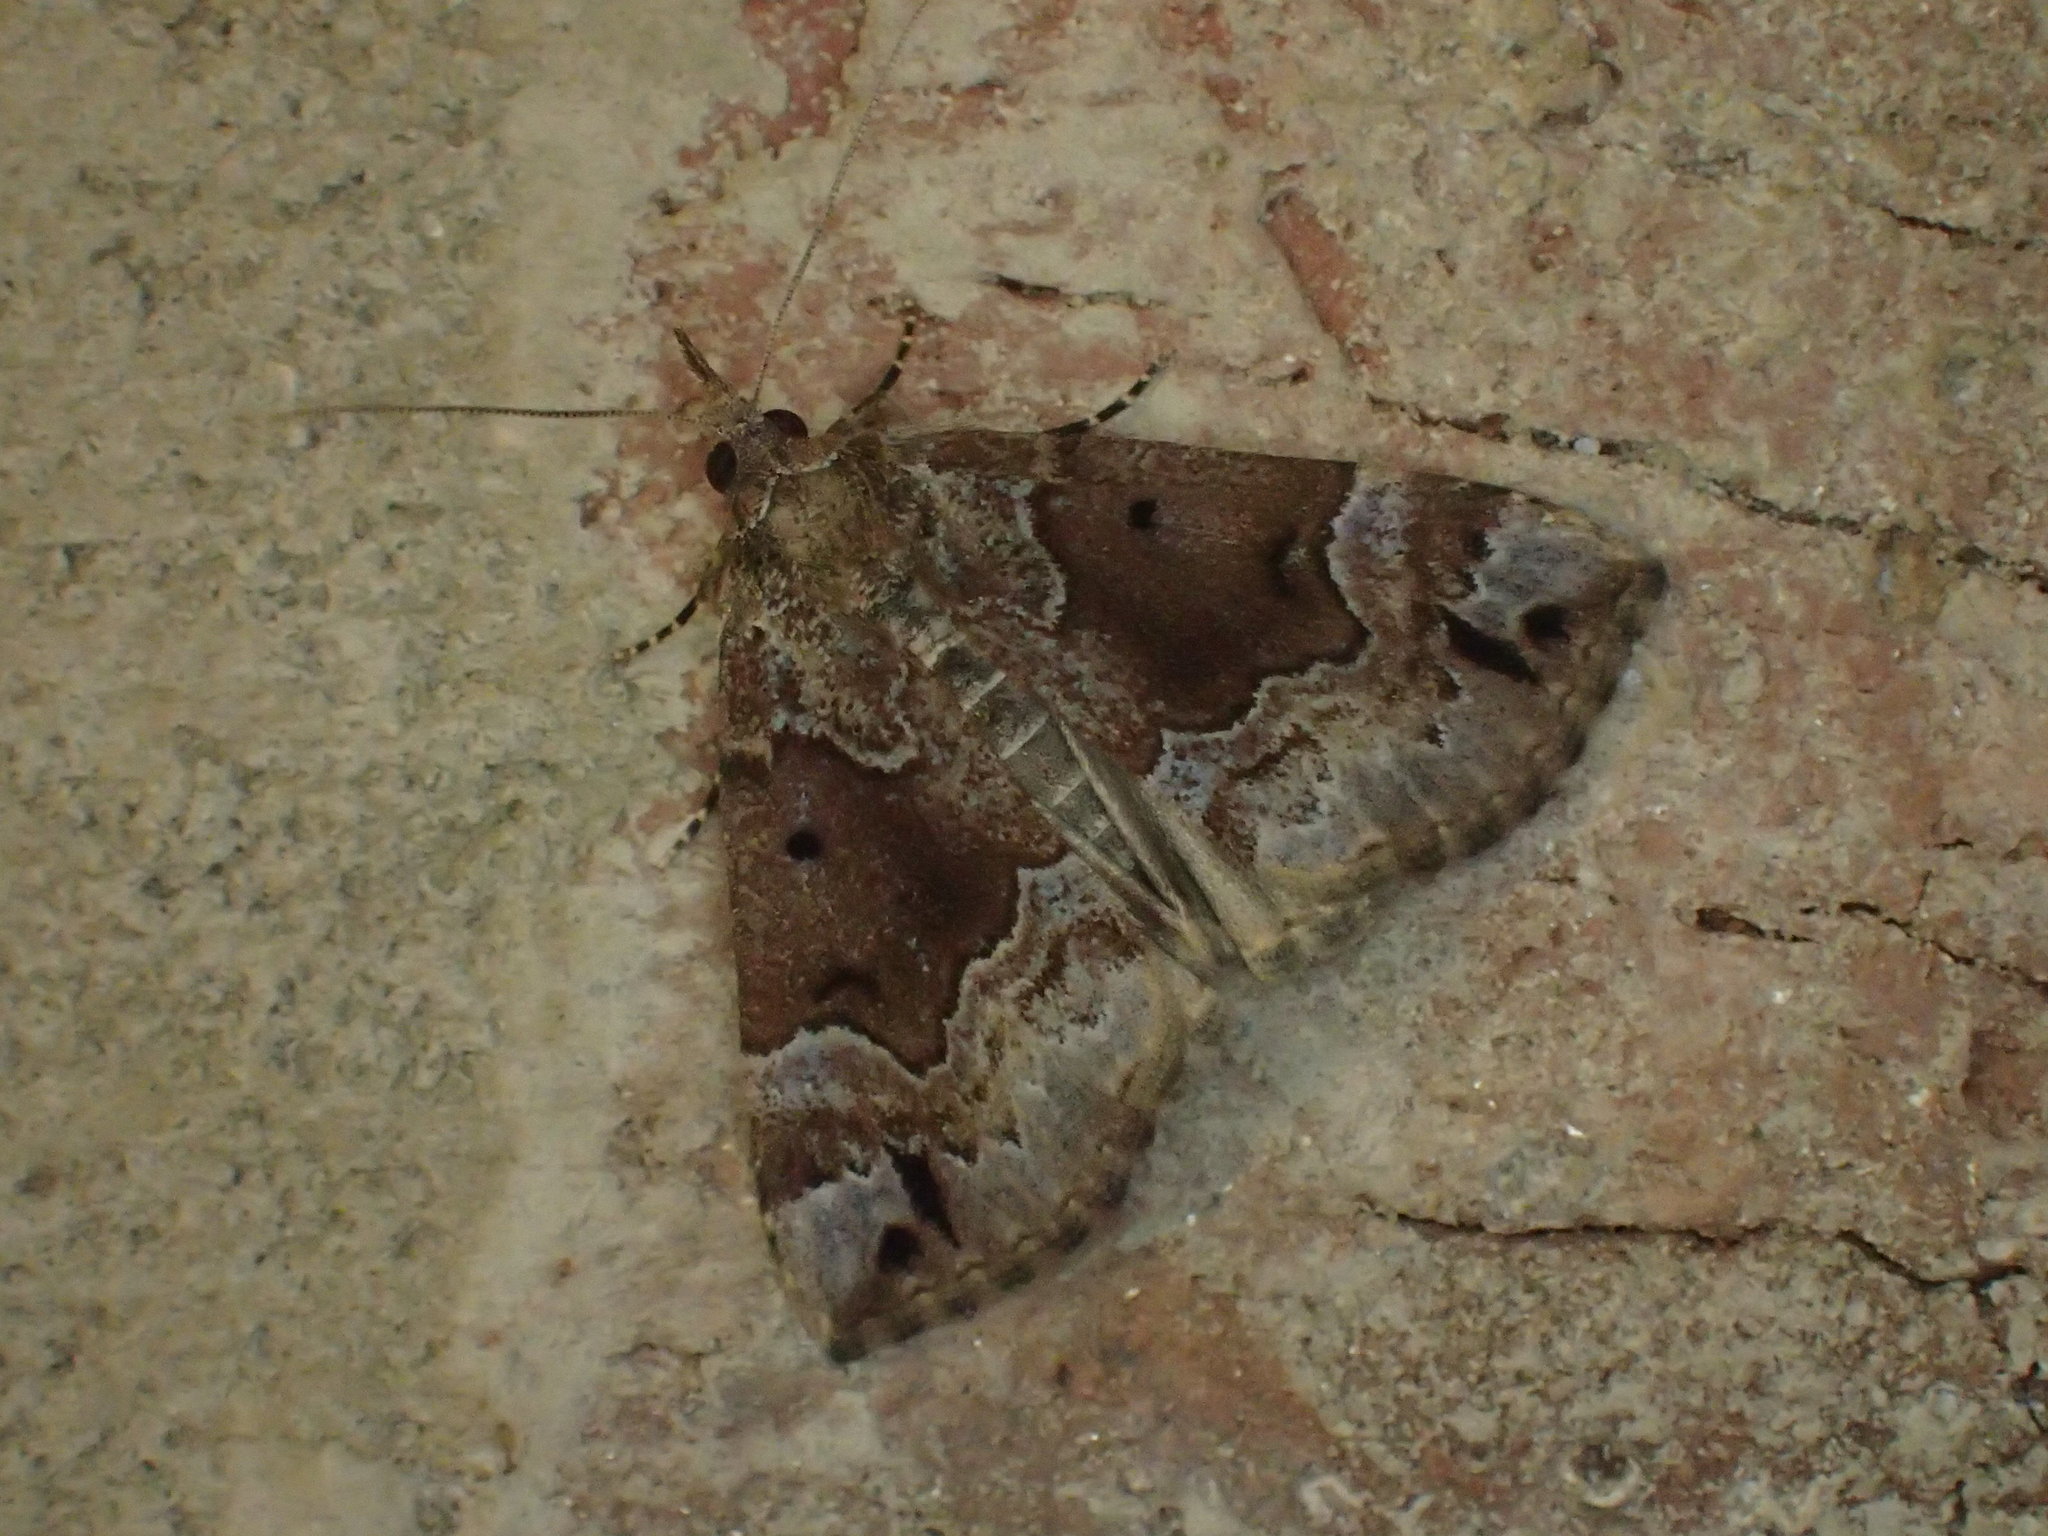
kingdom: Animalia
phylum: Arthropoda
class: Insecta
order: Lepidoptera
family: Erebidae
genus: Hypena
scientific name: Hypena palparia
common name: Mottled bomolocha moth
